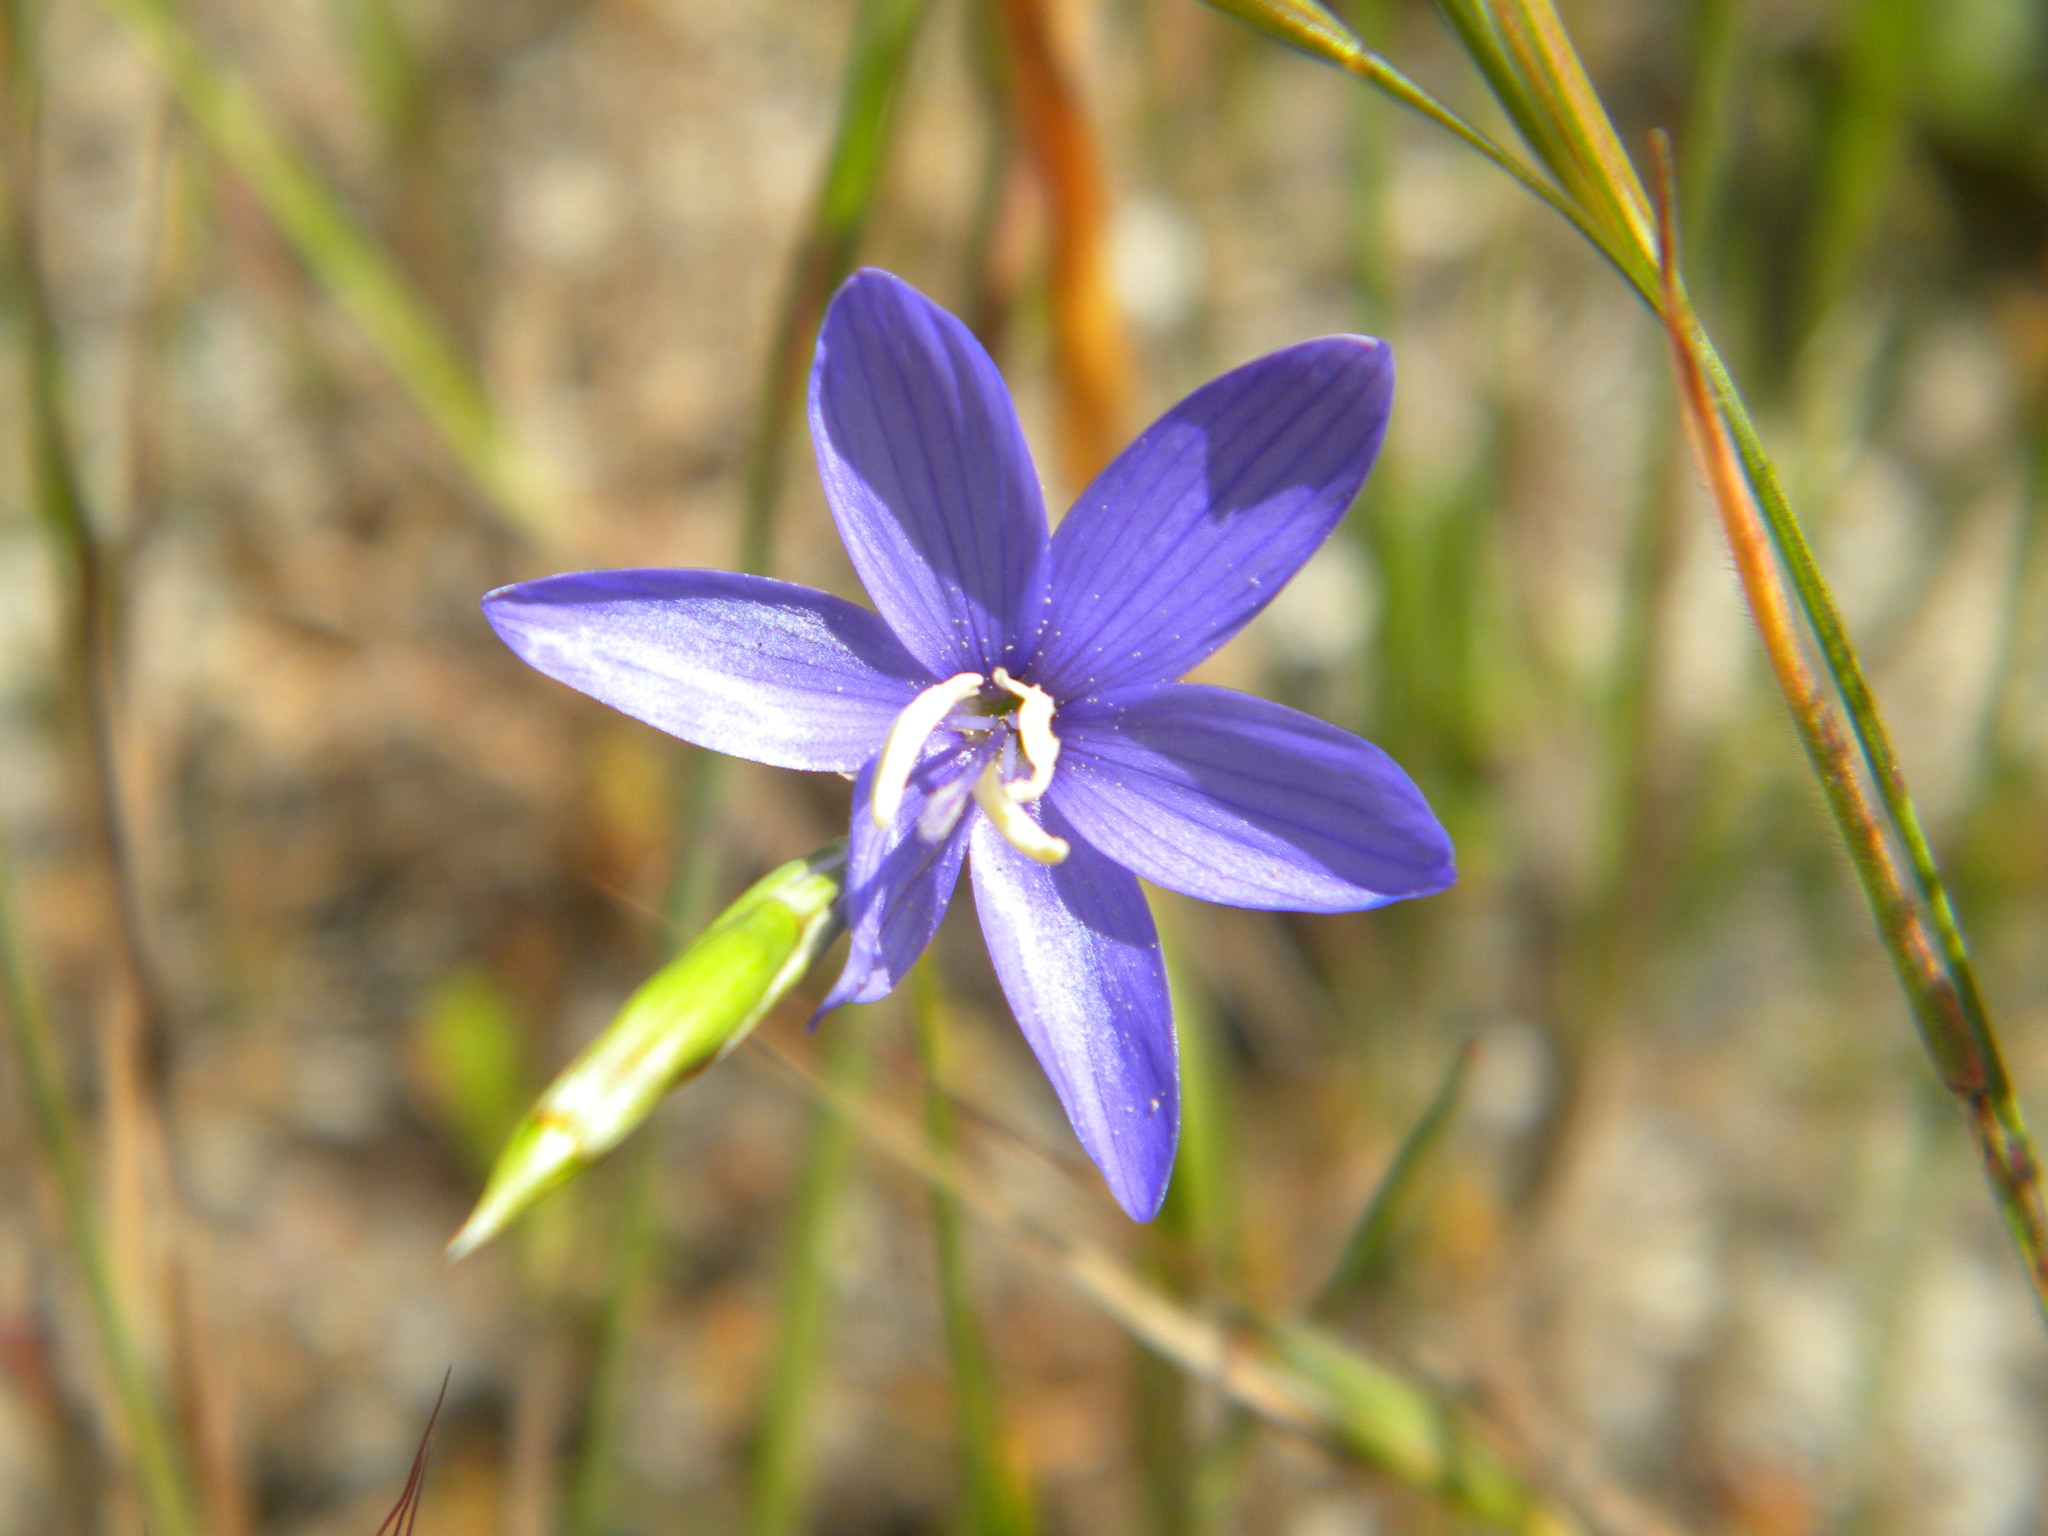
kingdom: Plantae
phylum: Tracheophyta
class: Liliopsida
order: Asparagales
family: Iridaceae
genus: Geissorhiza
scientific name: Geissorhiza aspera
